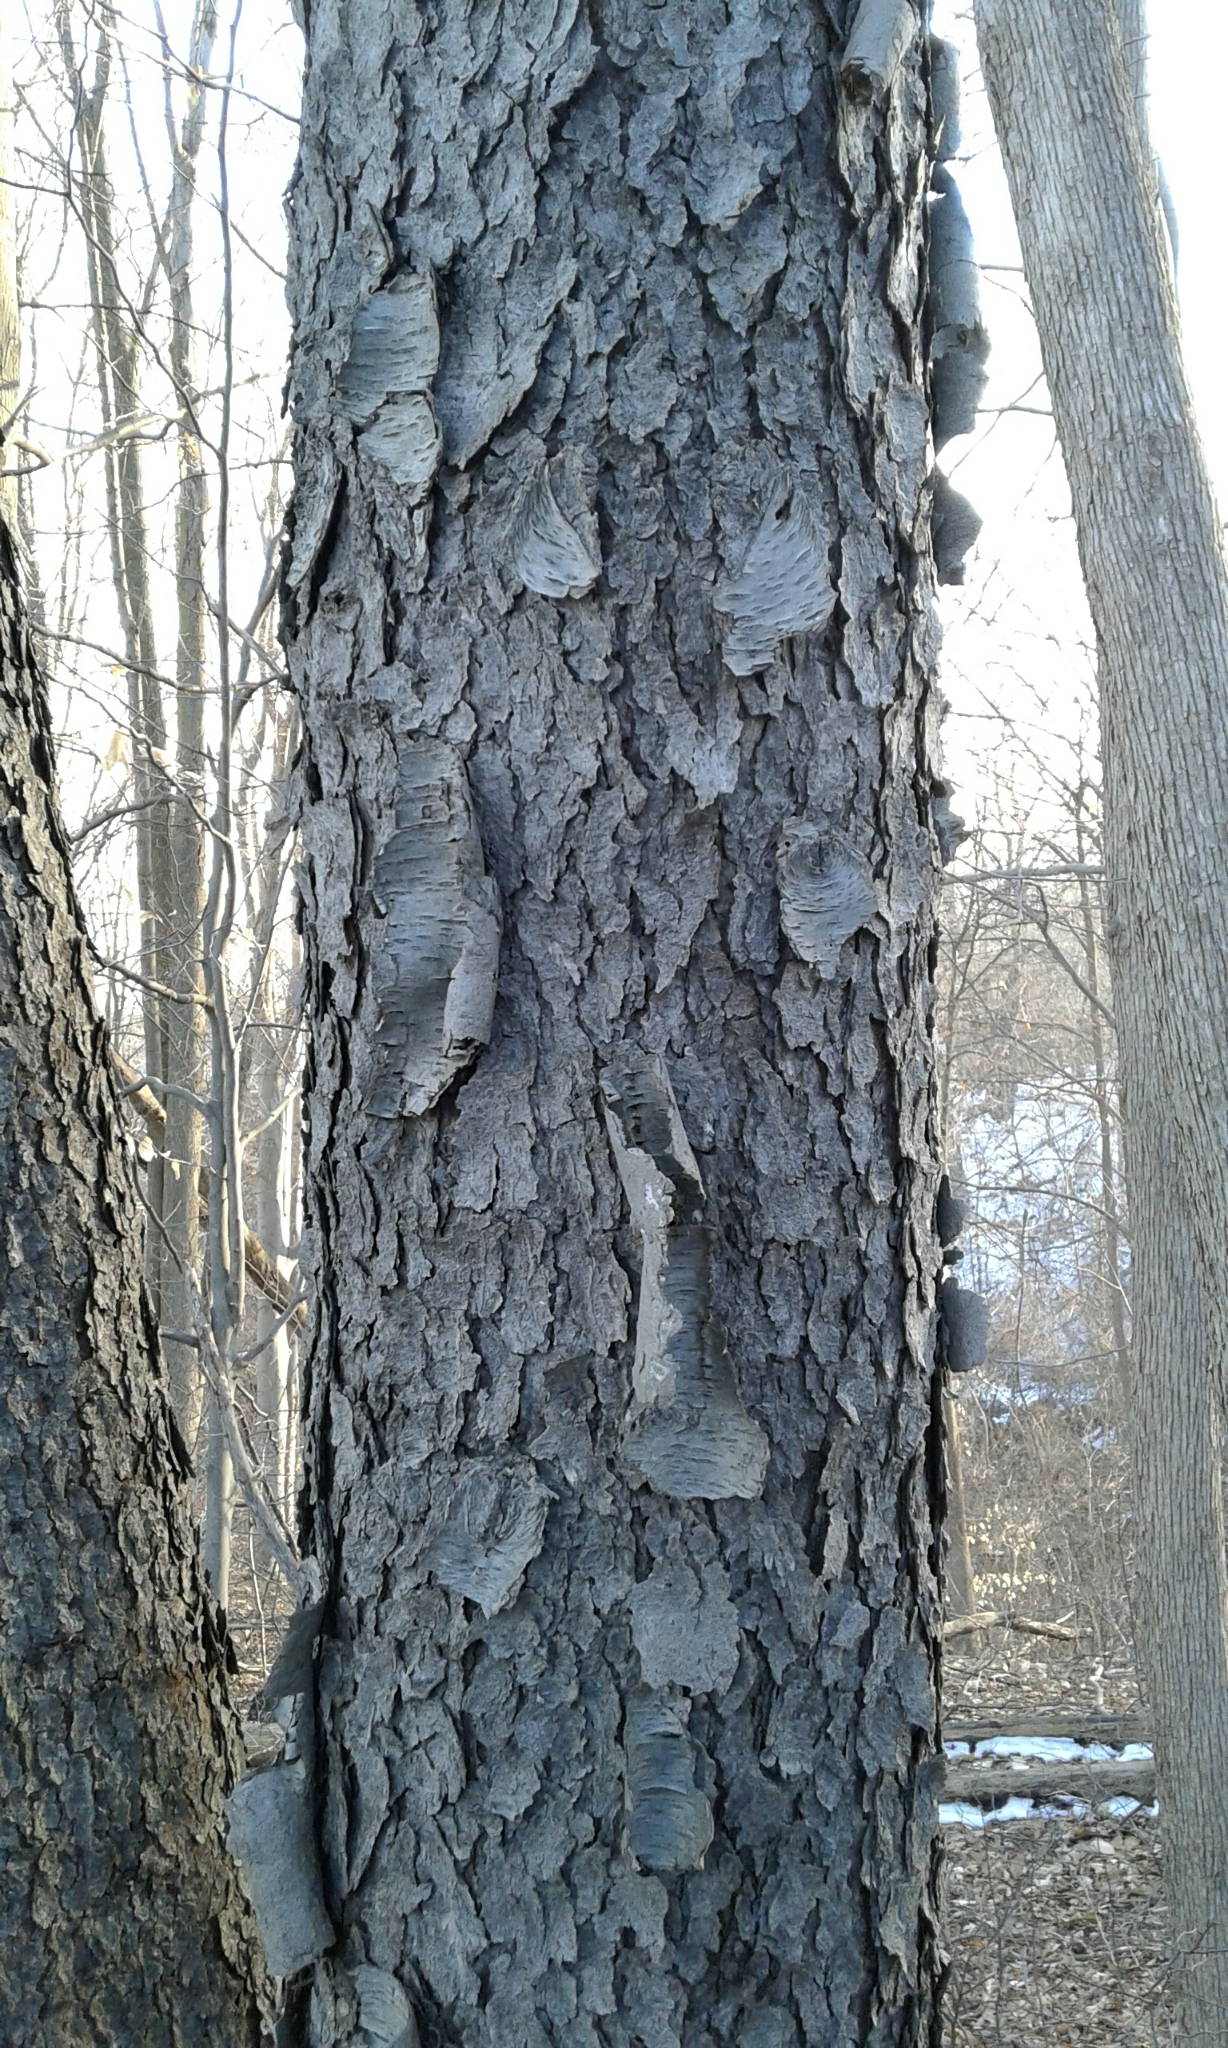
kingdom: Plantae
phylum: Tracheophyta
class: Magnoliopsida
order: Rosales
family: Rosaceae
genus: Prunus
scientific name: Prunus serotina
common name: Black cherry
